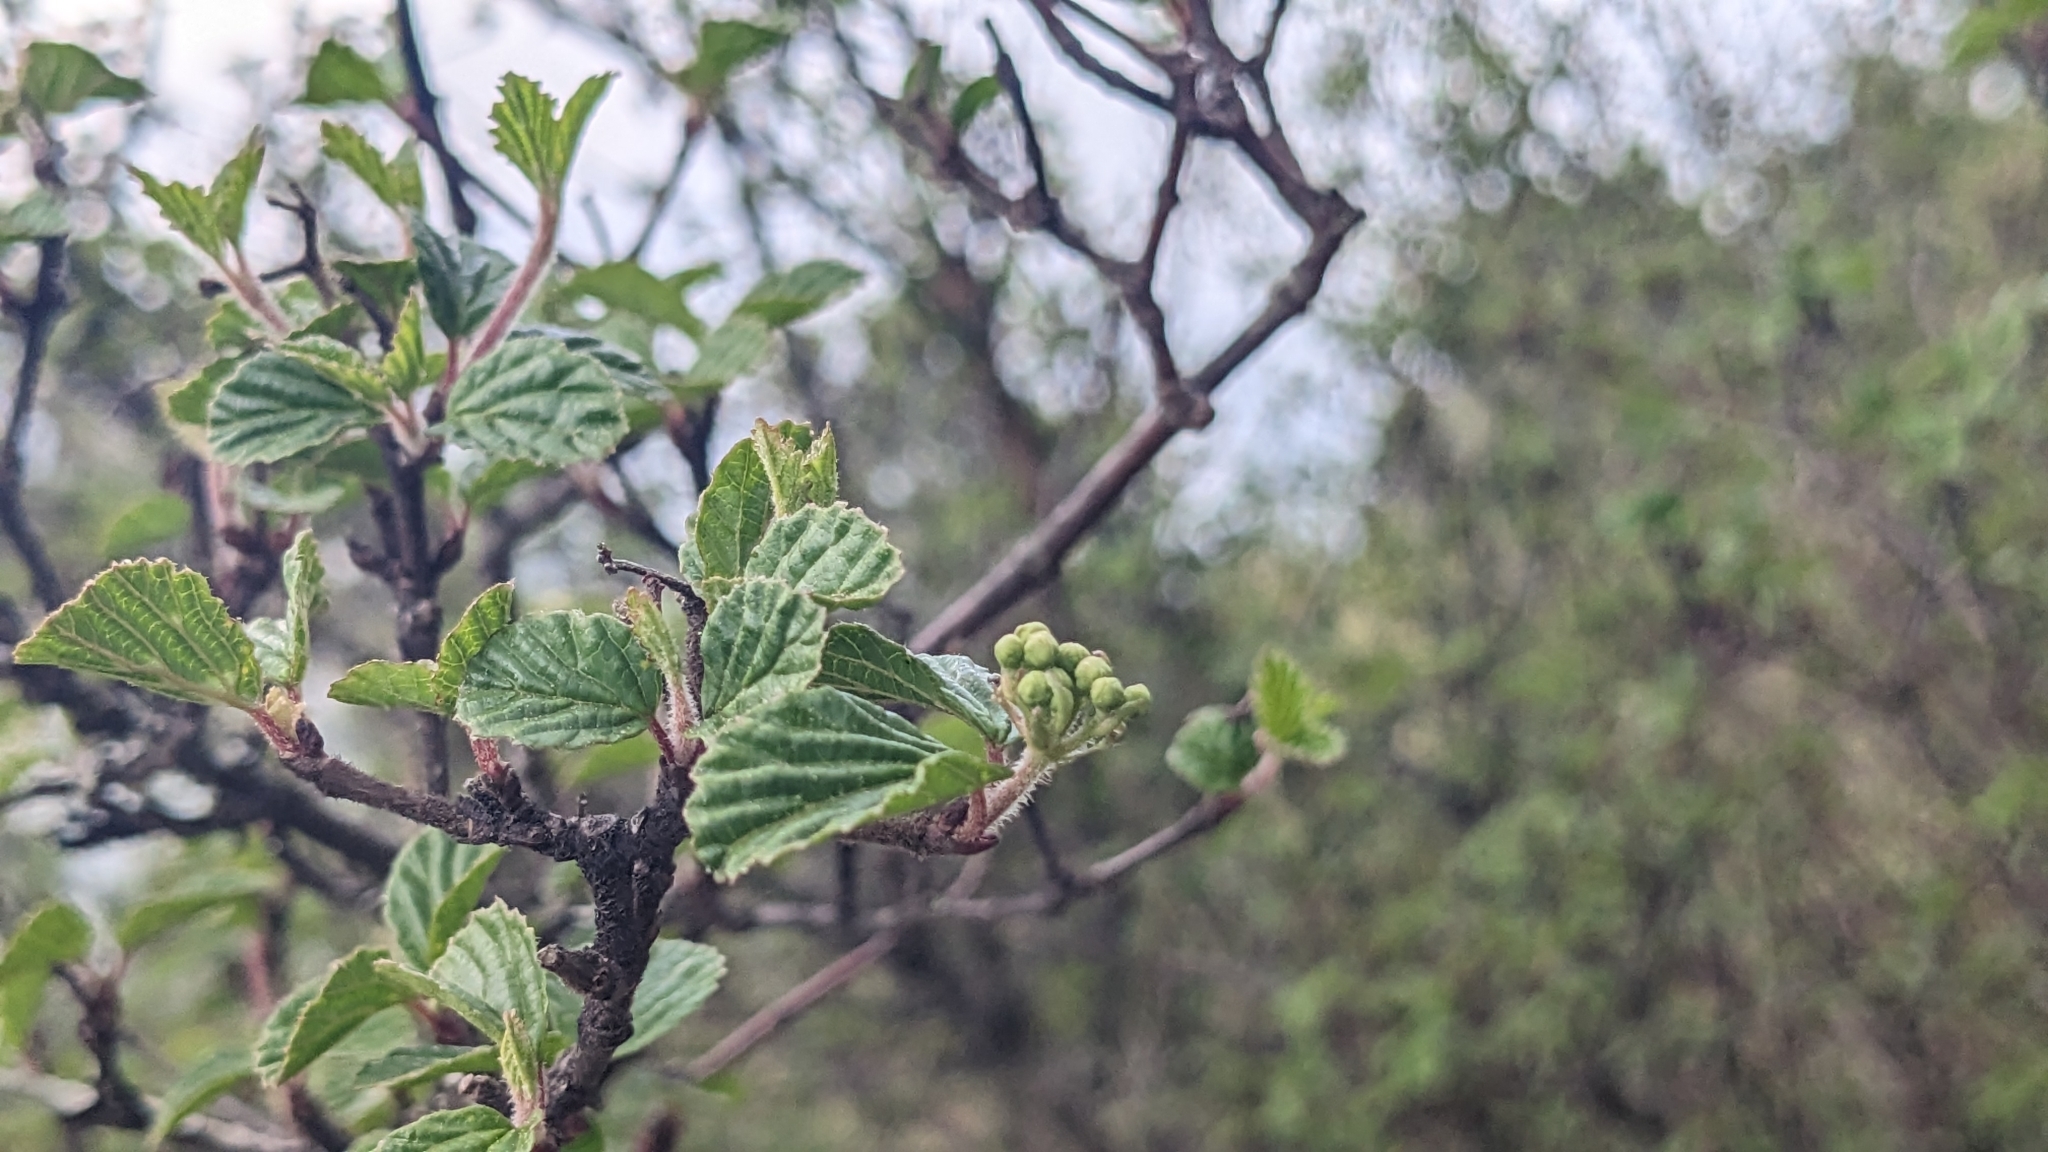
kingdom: Plantae
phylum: Tracheophyta
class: Magnoliopsida
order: Dipsacales
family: Viburnaceae
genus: Viburnum
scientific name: Viburnum parvifolium
